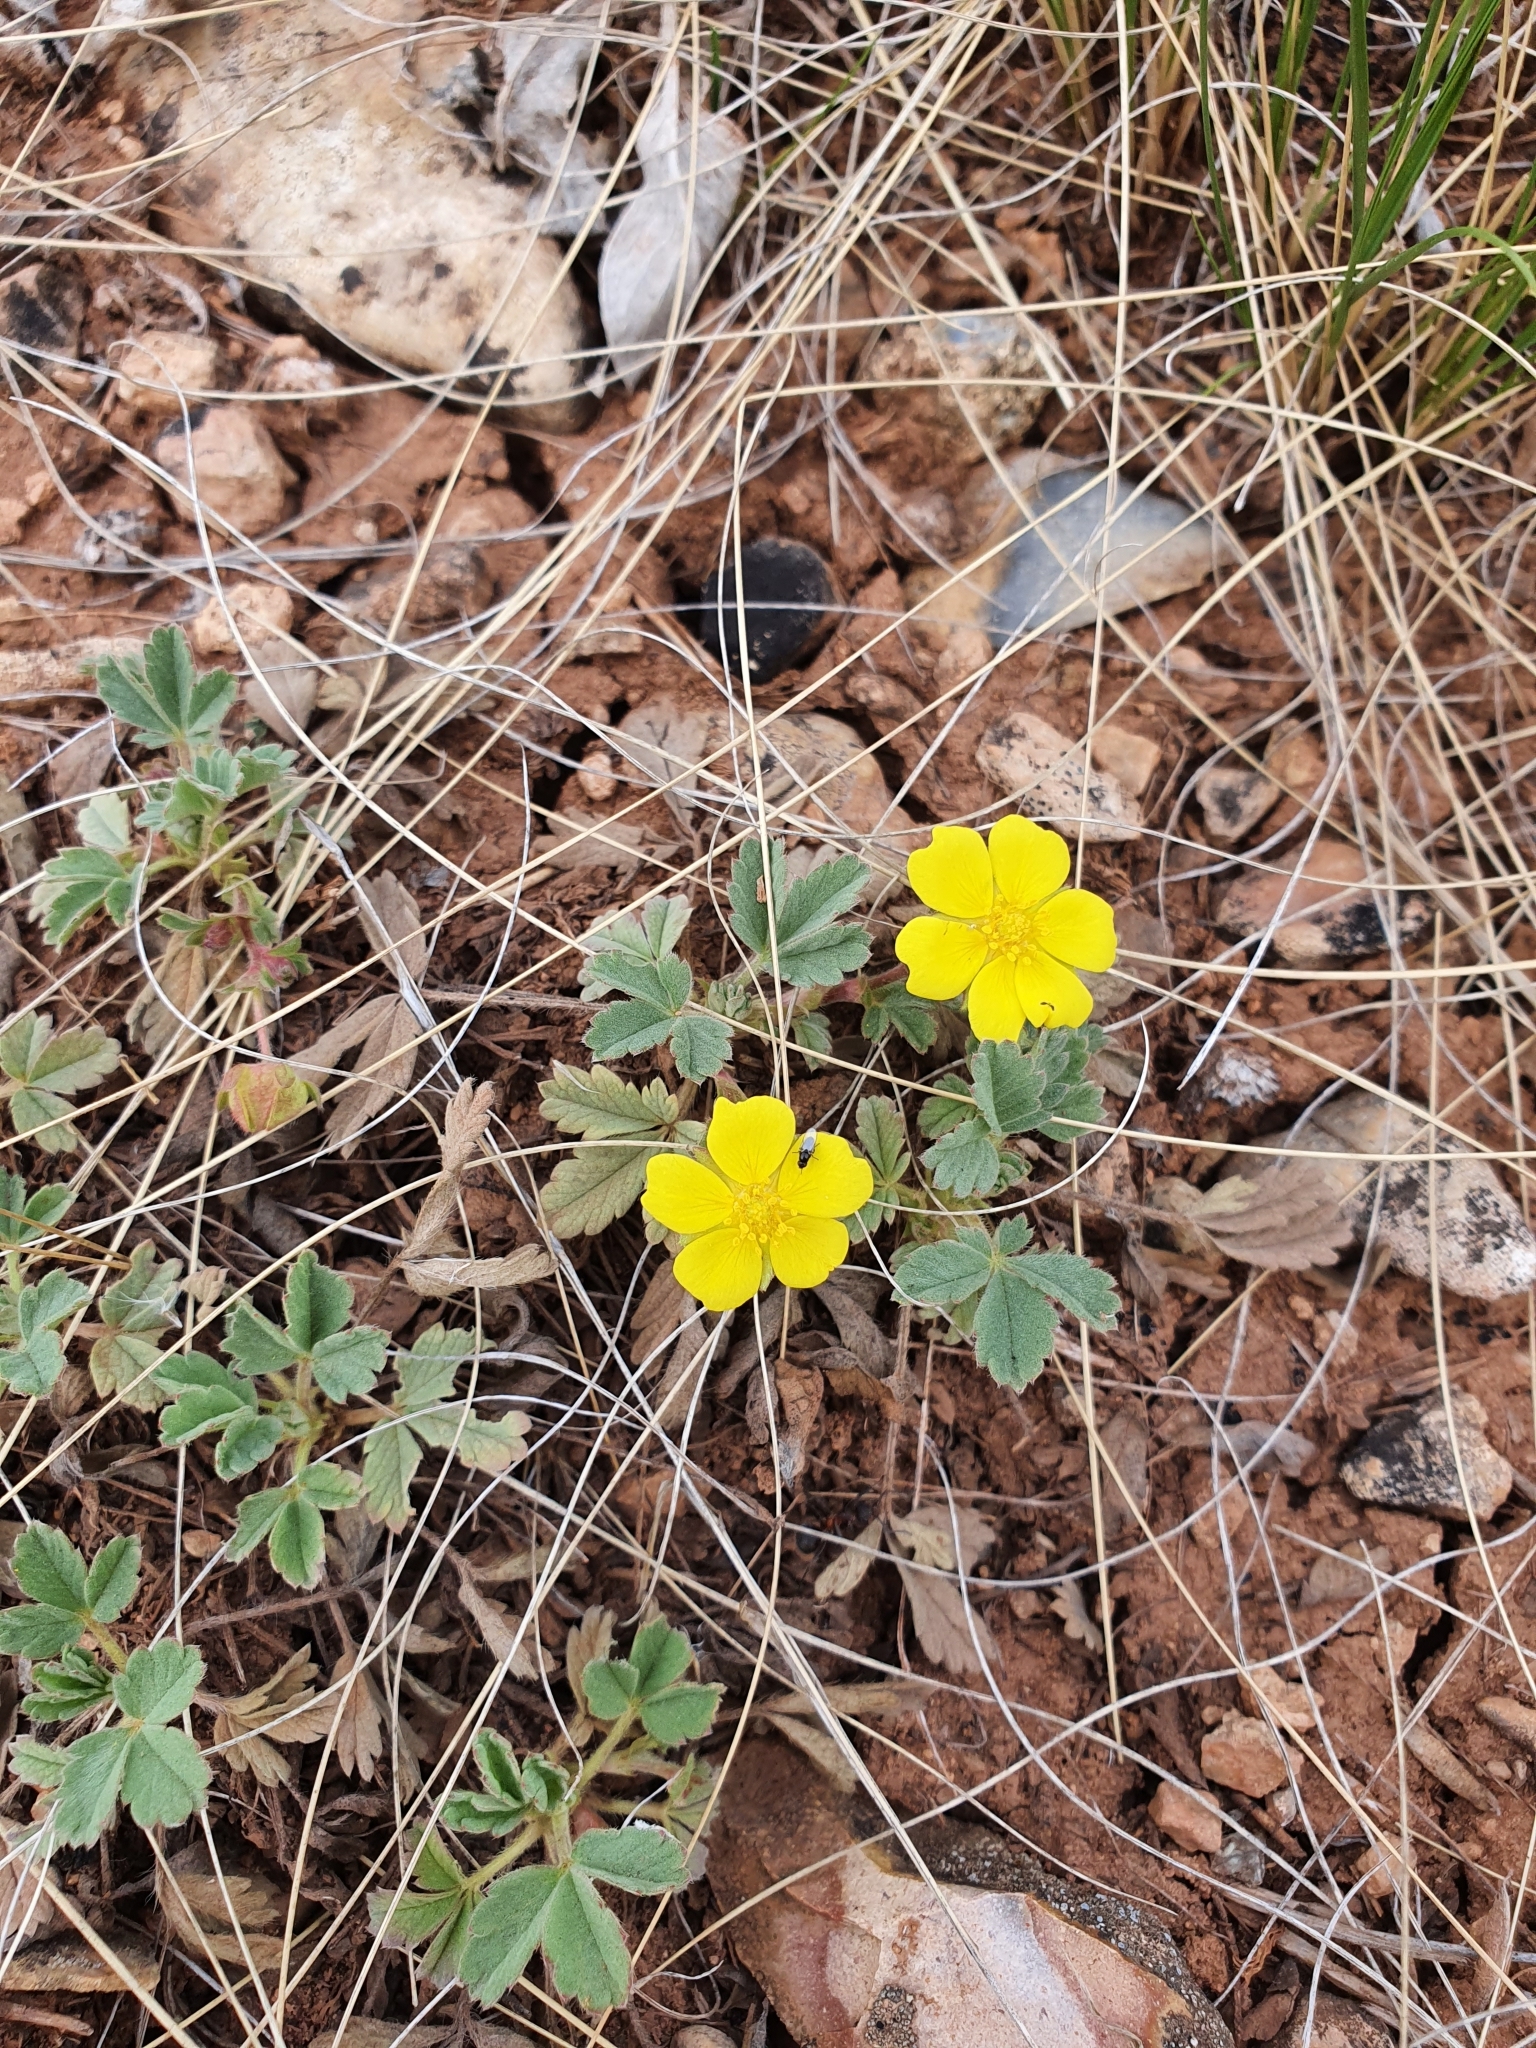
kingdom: Plantae
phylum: Tracheophyta
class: Magnoliopsida
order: Rosales
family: Rosaceae
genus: Potentilla
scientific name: Potentilla incana
